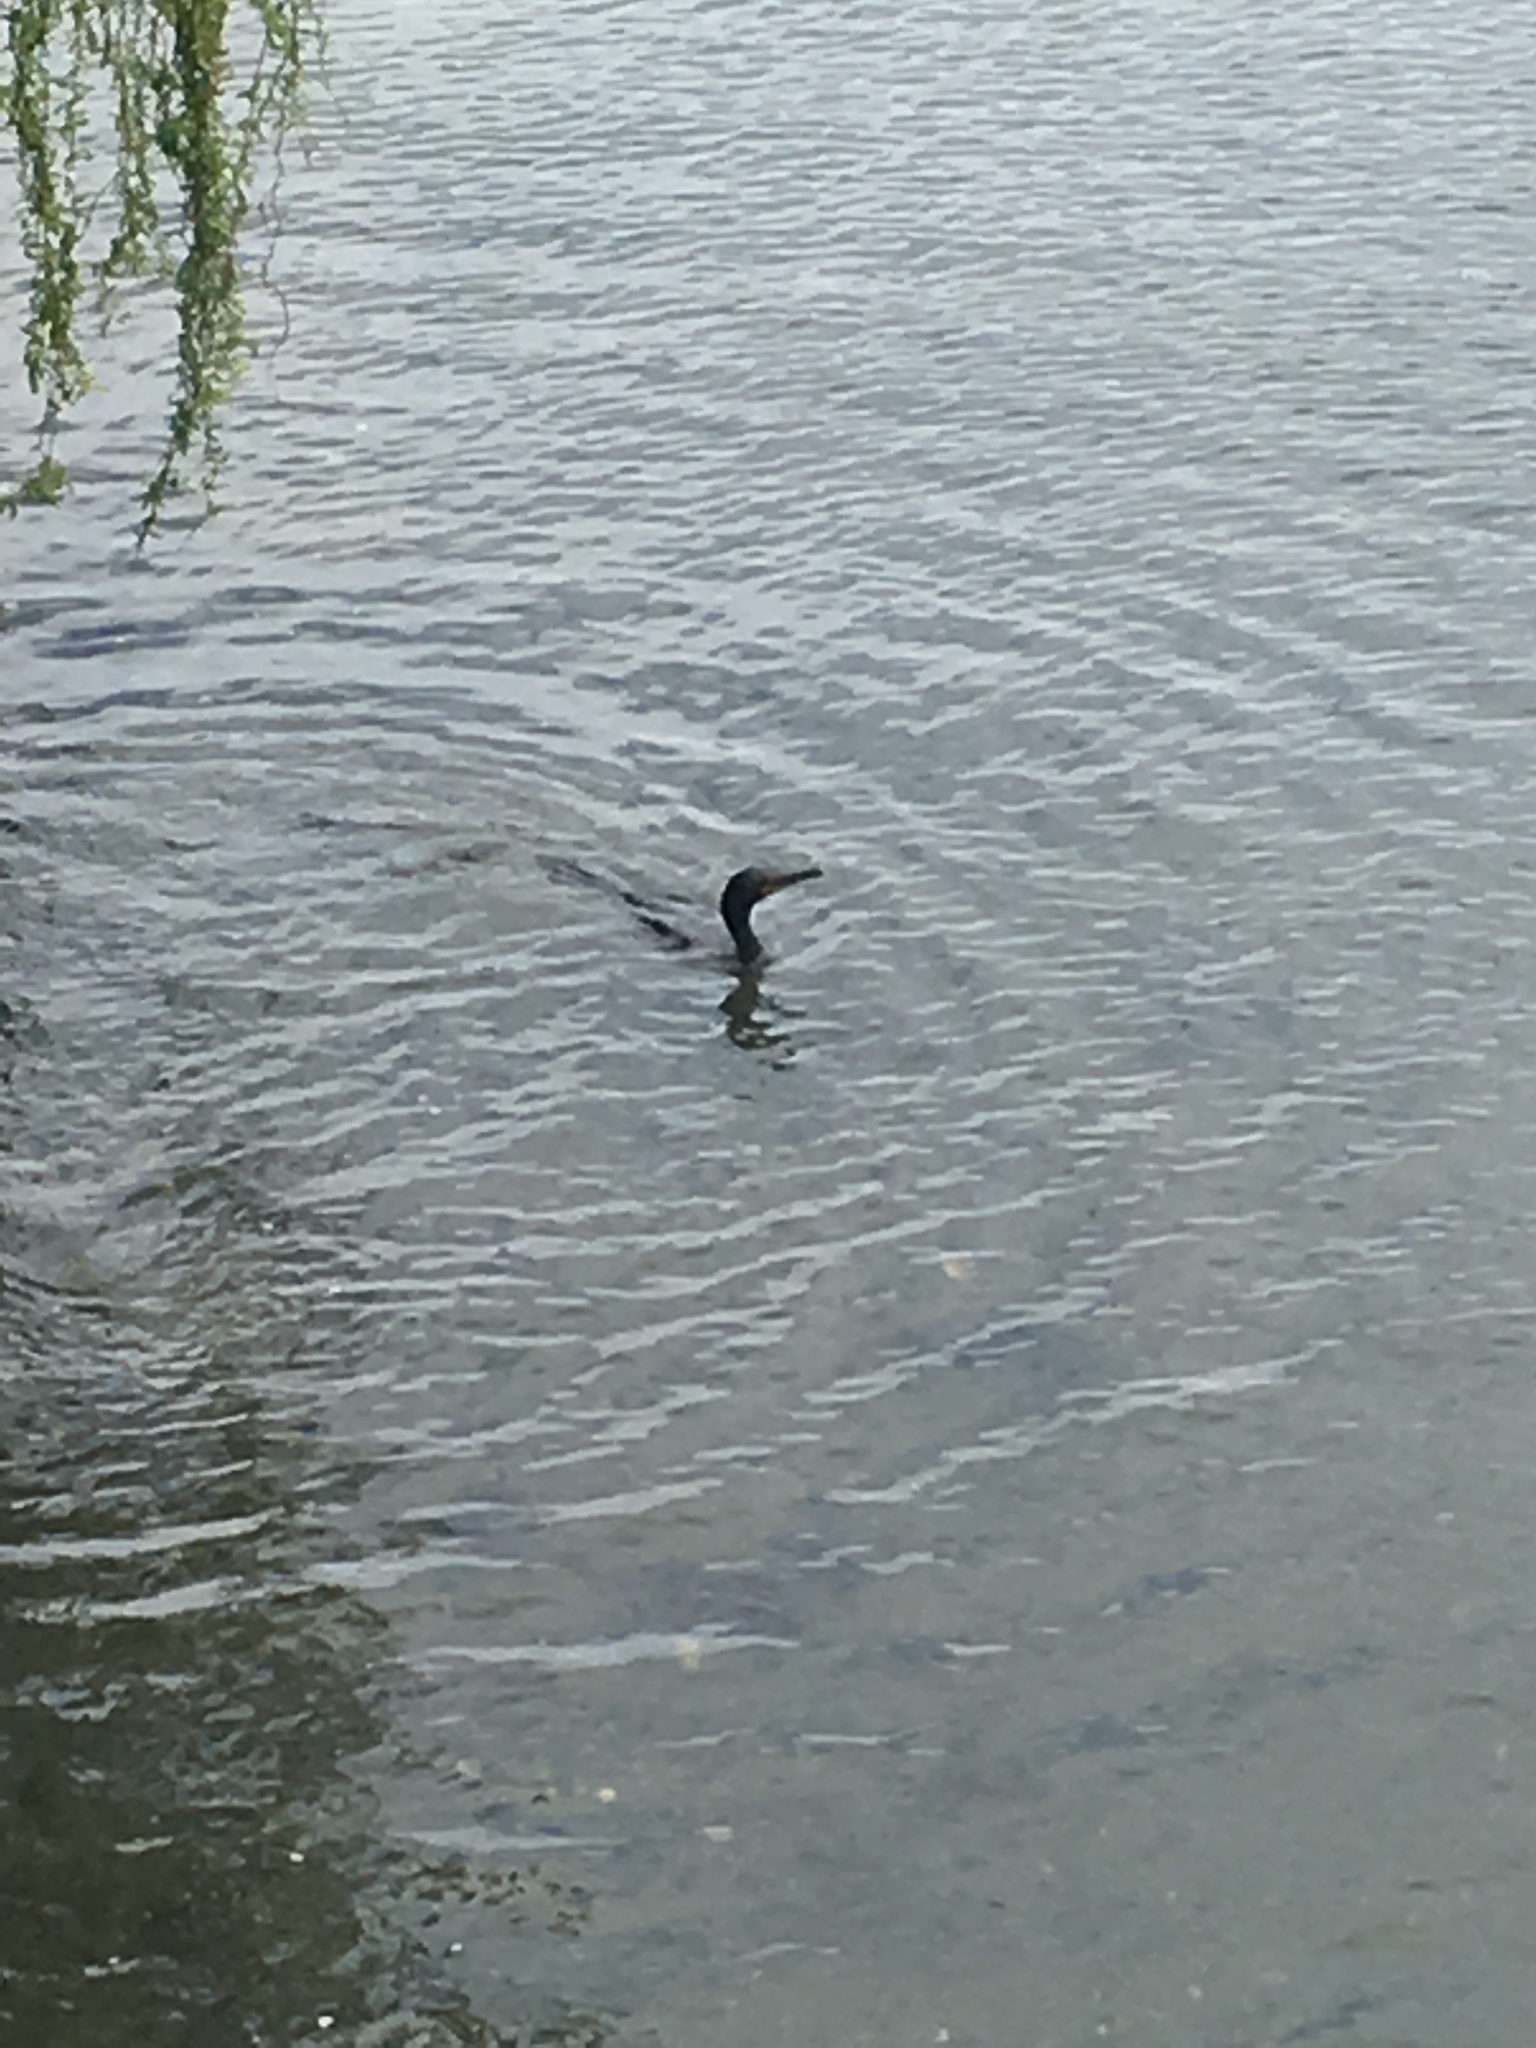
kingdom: Animalia
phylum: Chordata
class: Aves
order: Suliformes
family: Phalacrocoracidae
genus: Phalacrocorax
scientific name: Phalacrocorax auritus
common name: Double-crested cormorant
